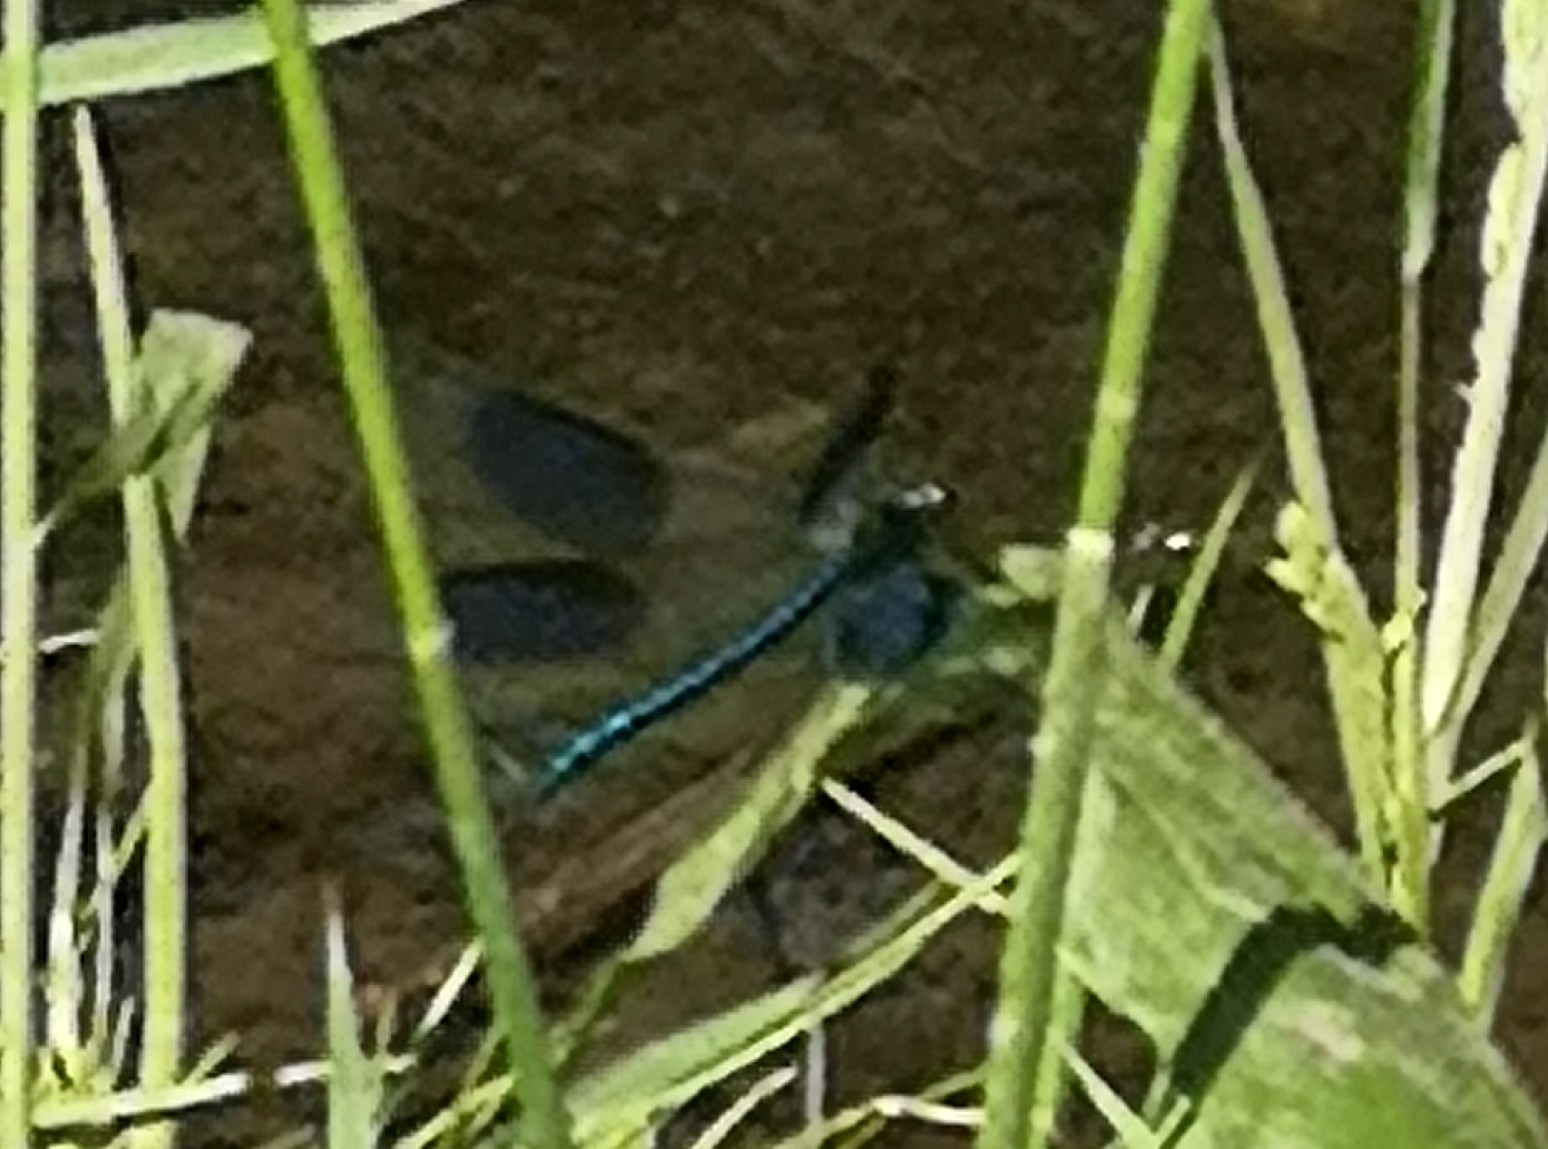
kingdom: Animalia
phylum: Arthropoda
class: Insecta
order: Odonata
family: Calopterygidae
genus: Calopteryx
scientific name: Calopteryx splendens
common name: Banded demoiselle
